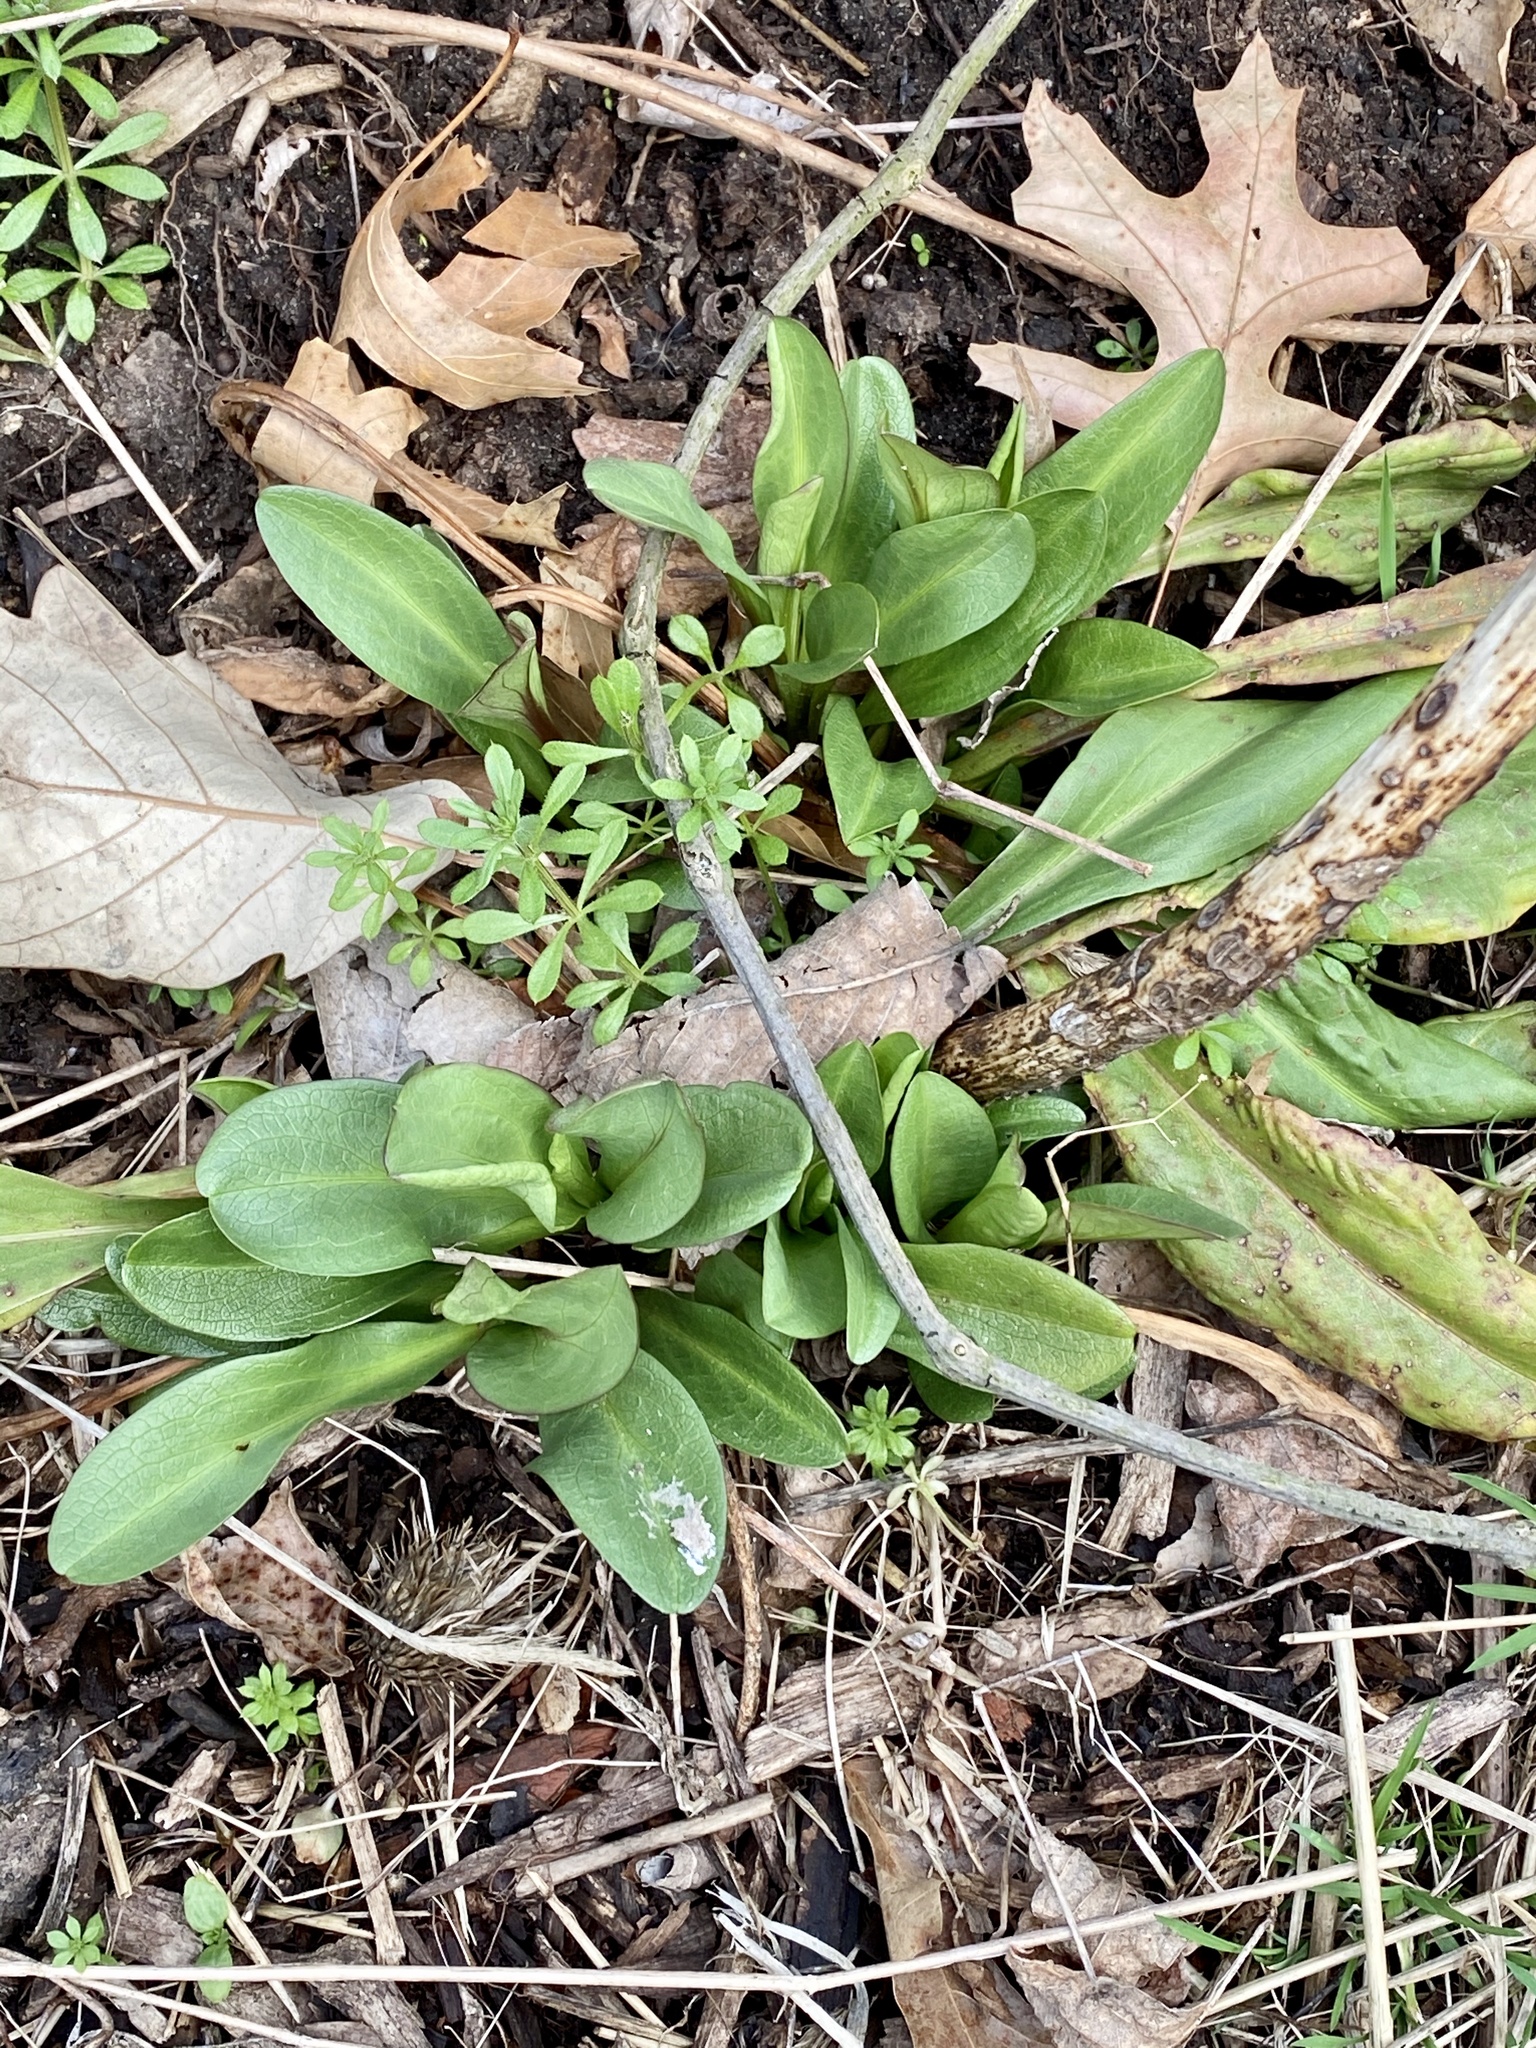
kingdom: Plantae
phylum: Tracheophyta
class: Magnoliopsida
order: Asterales
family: Asteraceae
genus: Solidago
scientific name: Solidago sempervirens
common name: Salt-marsh goldenrod
